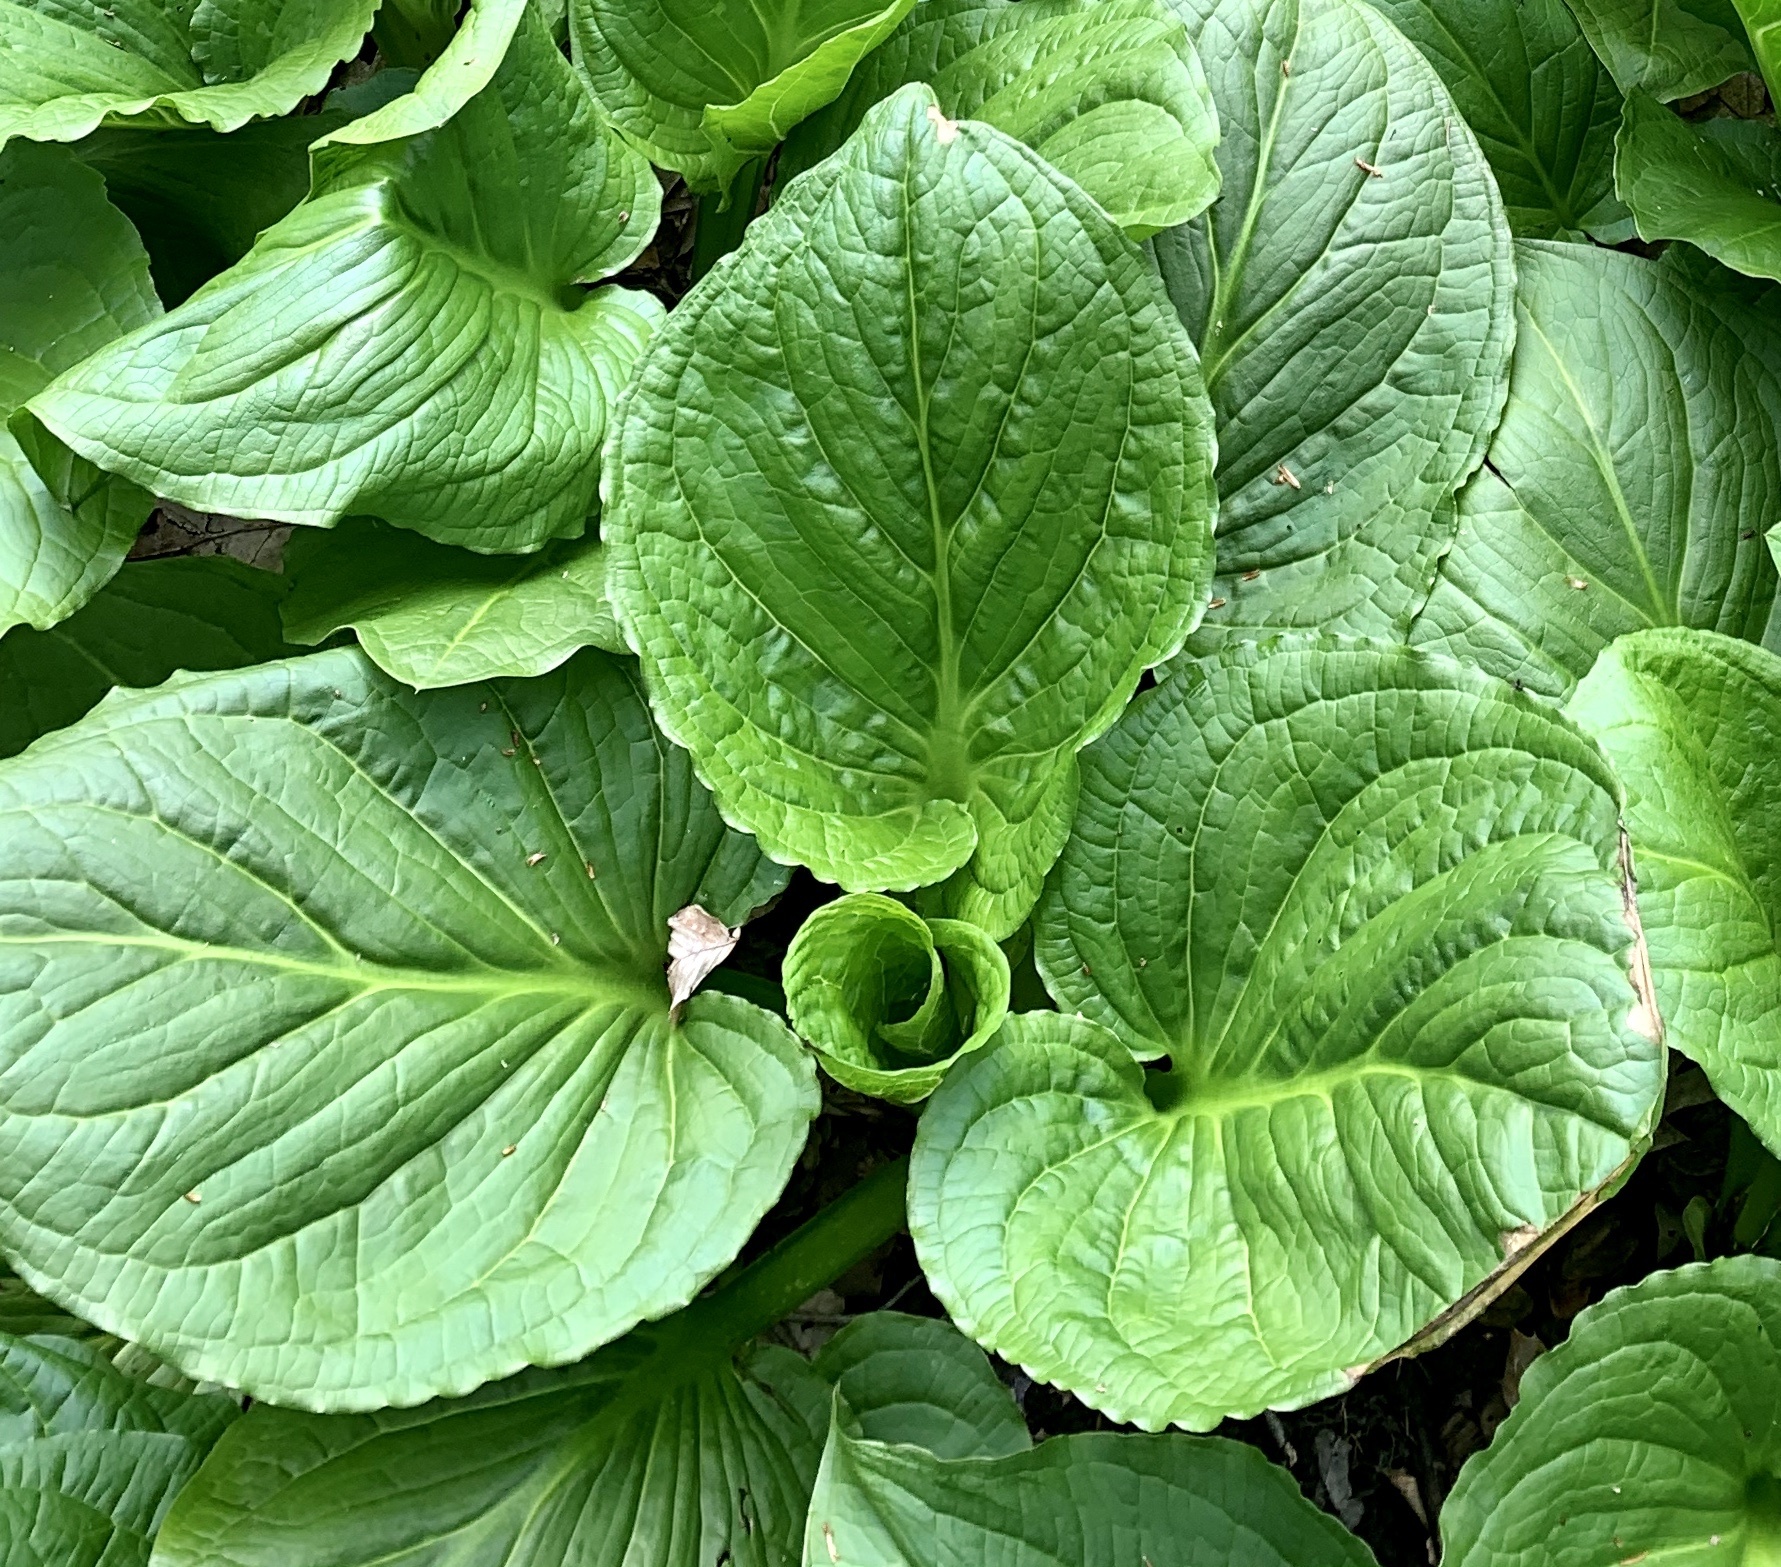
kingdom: Plantae
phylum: Tracheophyta
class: Liliopsida
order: Alismatales
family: Araceae
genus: Symplocarpus
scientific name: Symplocarpus foetidus
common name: Eastern skunk cabbage
